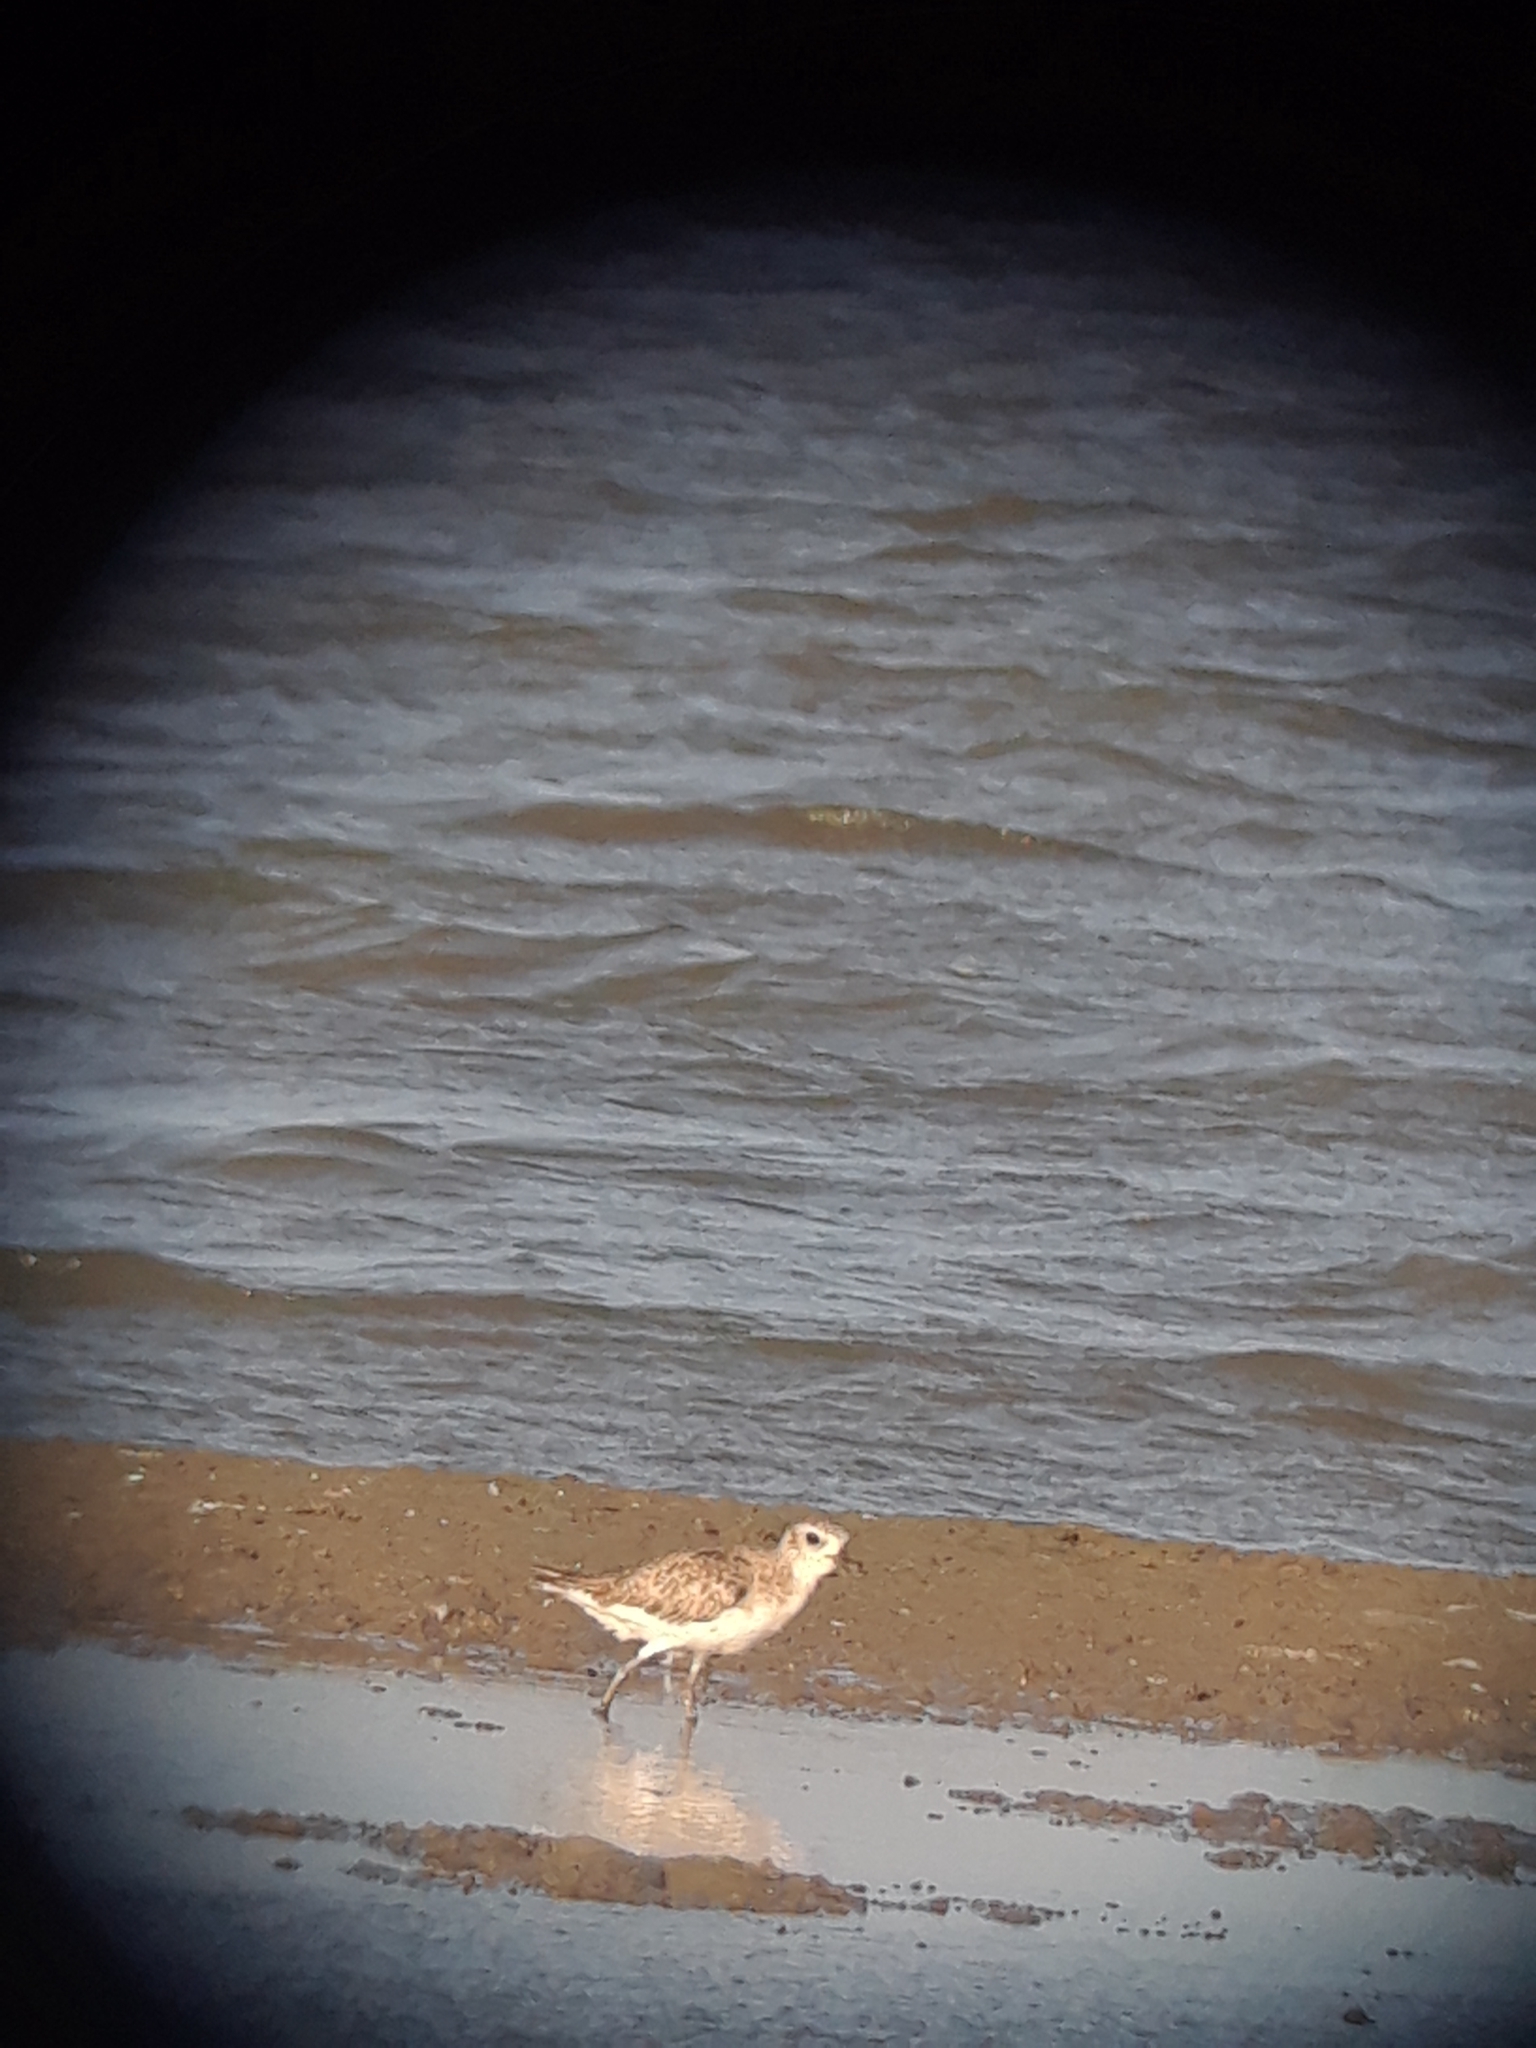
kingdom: Animalia
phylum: Chordata
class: Aves
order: Charadriiformes
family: Charadriidae
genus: Pluvialis
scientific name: Pluvialis squatarola
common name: Grey plover
